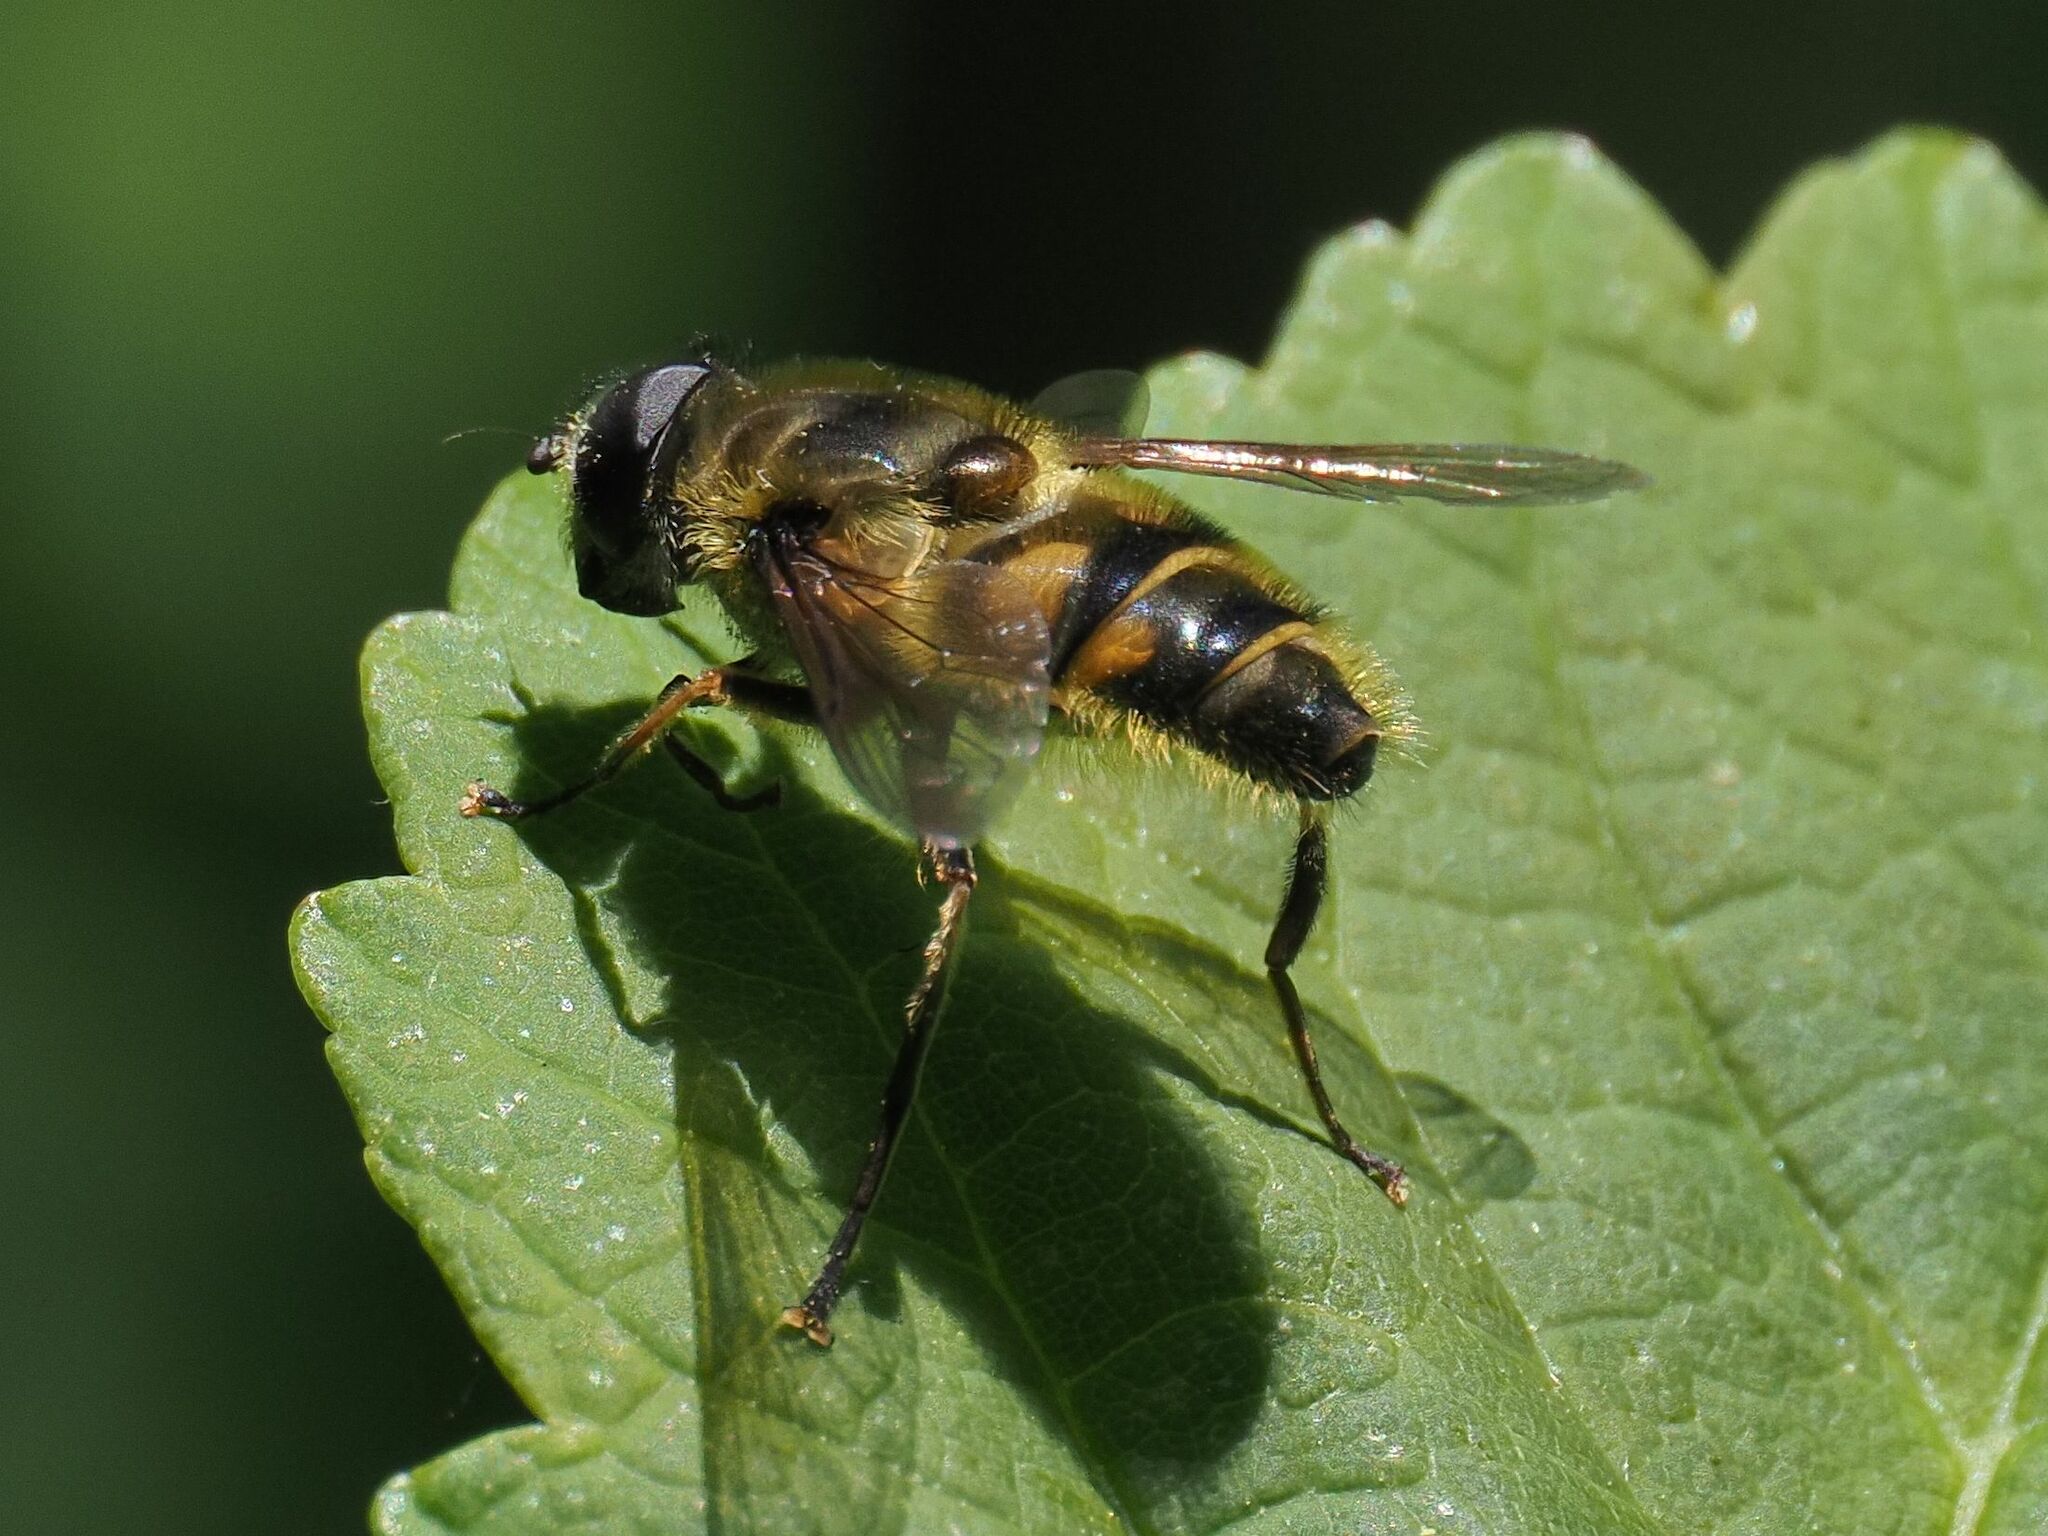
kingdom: Animalia
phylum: Arthropoda
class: Insecta
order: Diptera
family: Syrphidae
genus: Myathropa
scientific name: Myathropa florea
